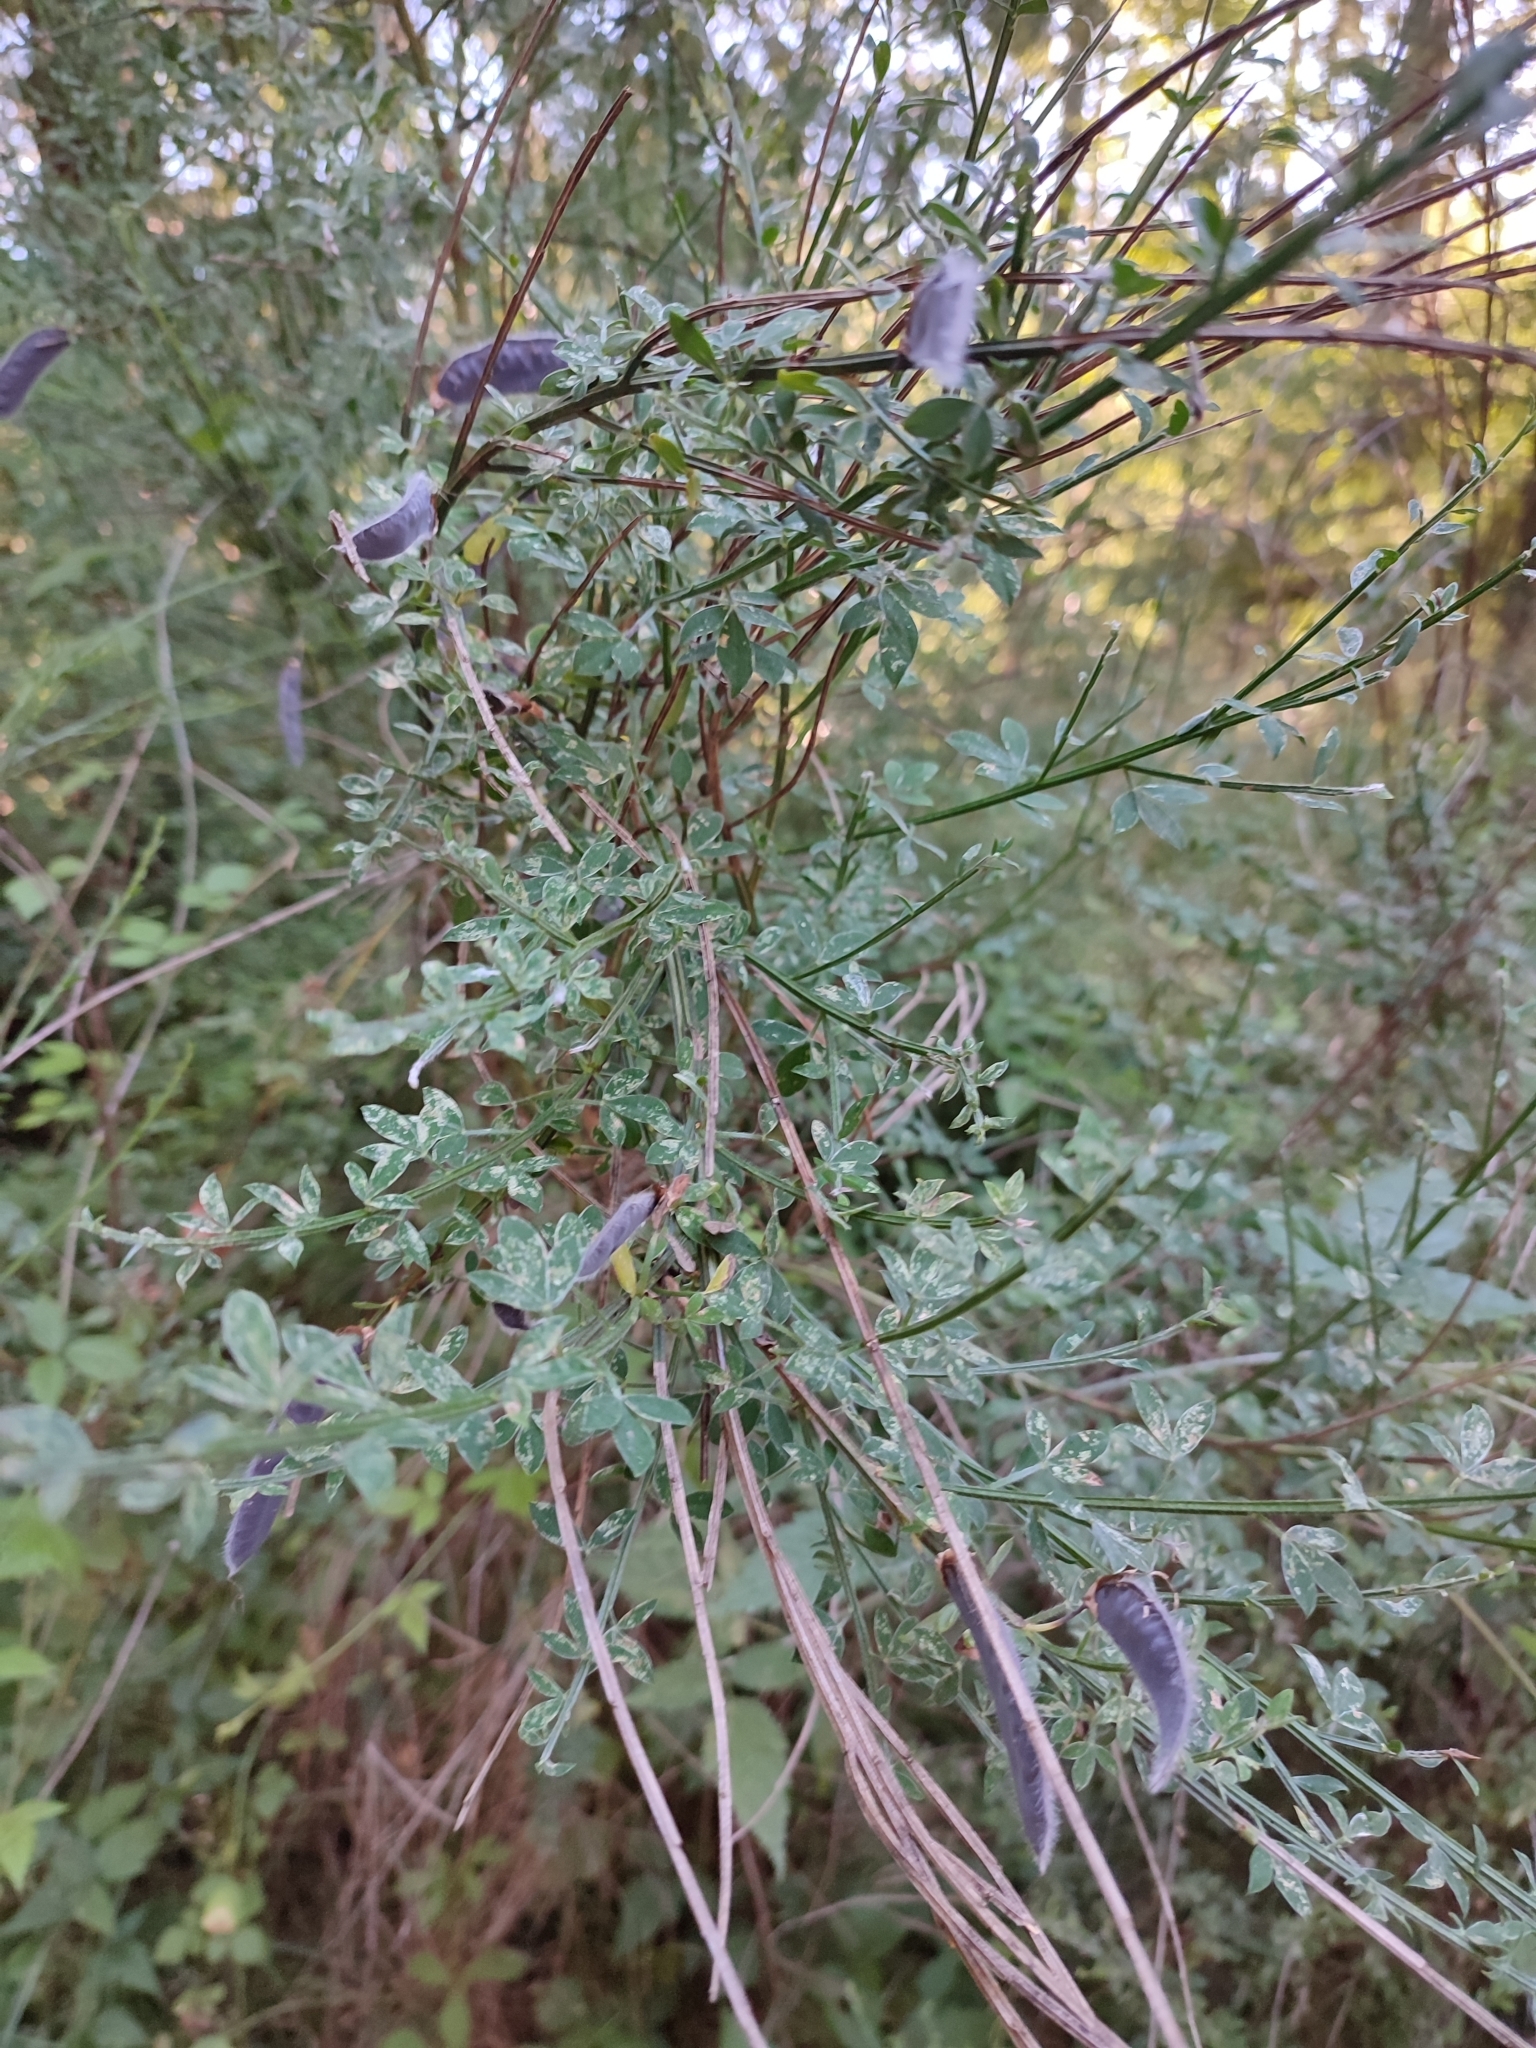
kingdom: Plantae
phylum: Tracheophyta
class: Magnoliopsida
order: Fabales
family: Fabaceae
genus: Cytisus
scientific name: Cytisus scoparius
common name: Scotch broom
